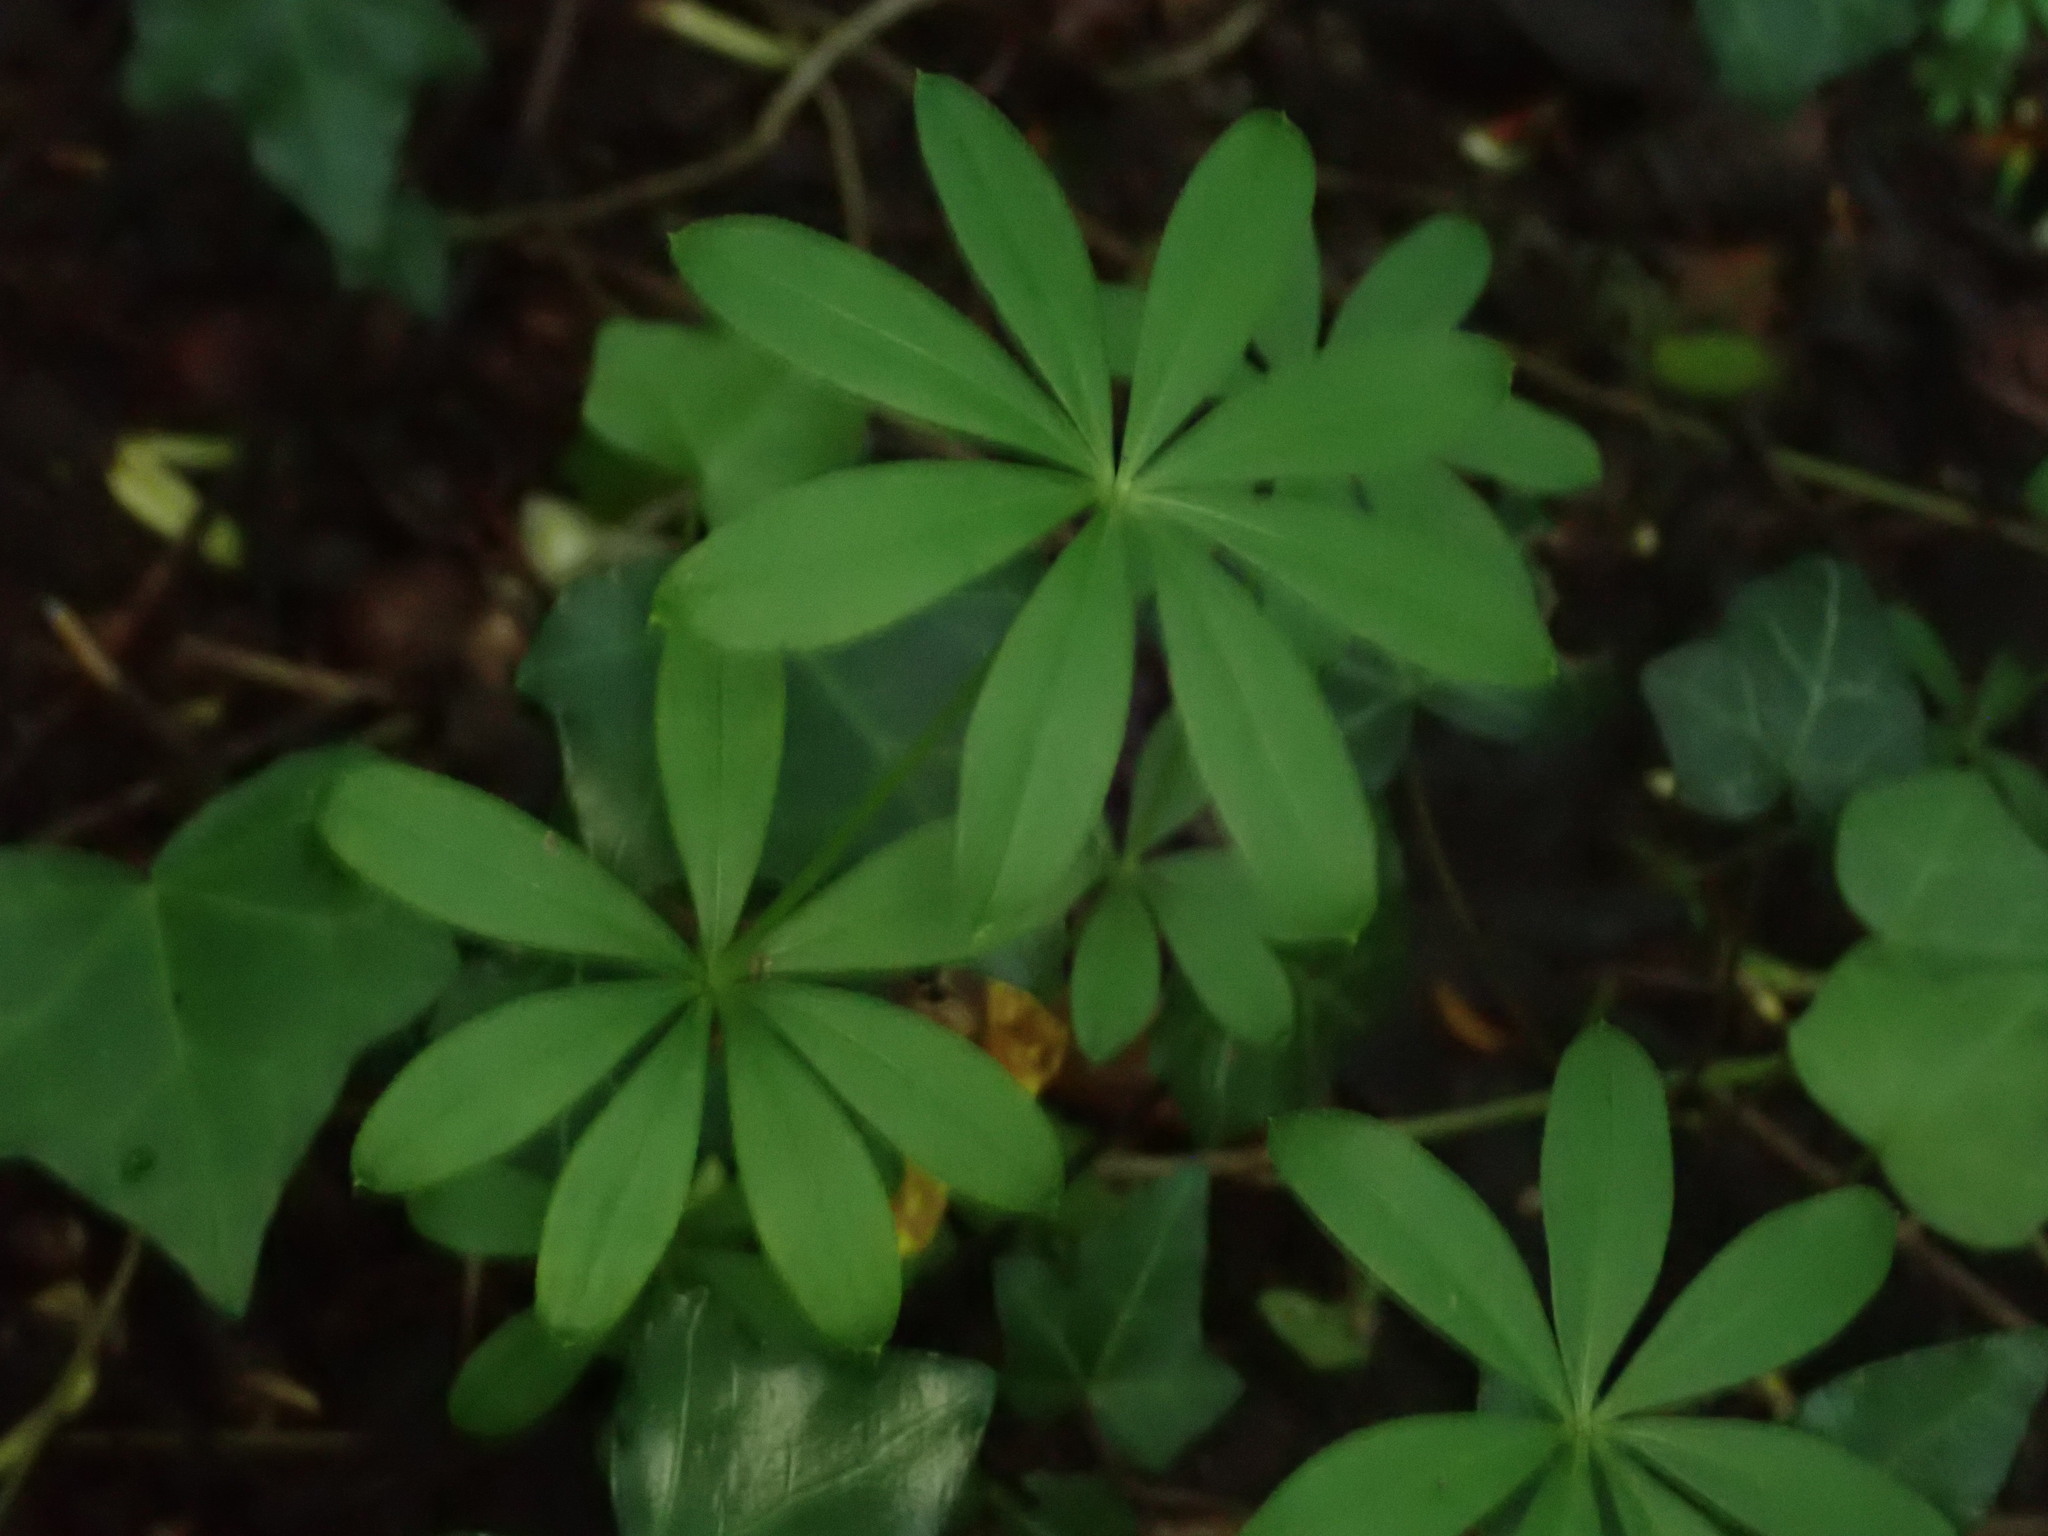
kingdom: Plantae
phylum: Tracheophyta
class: Magnoliopsida
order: Gentianales
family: Rubiaceae
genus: Galium
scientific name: Galium odoratum
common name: Sweet woodruff
